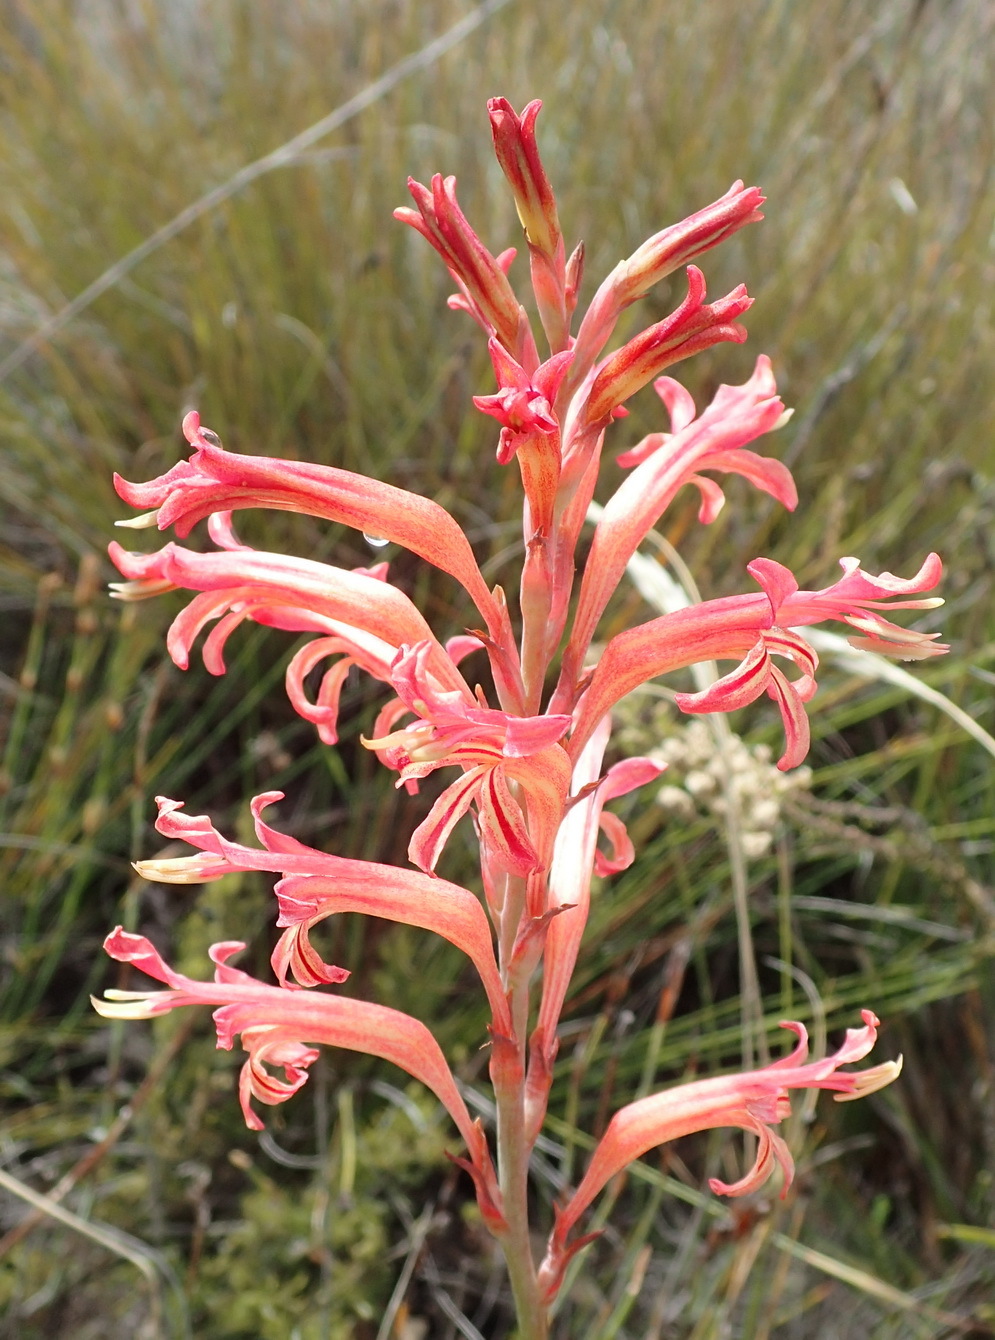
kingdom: Plantae
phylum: Tracheophyta
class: Liliopsida
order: Asparagales
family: Iridaceae
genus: Tritoniopsis
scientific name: Tritoniopsis antholyza
